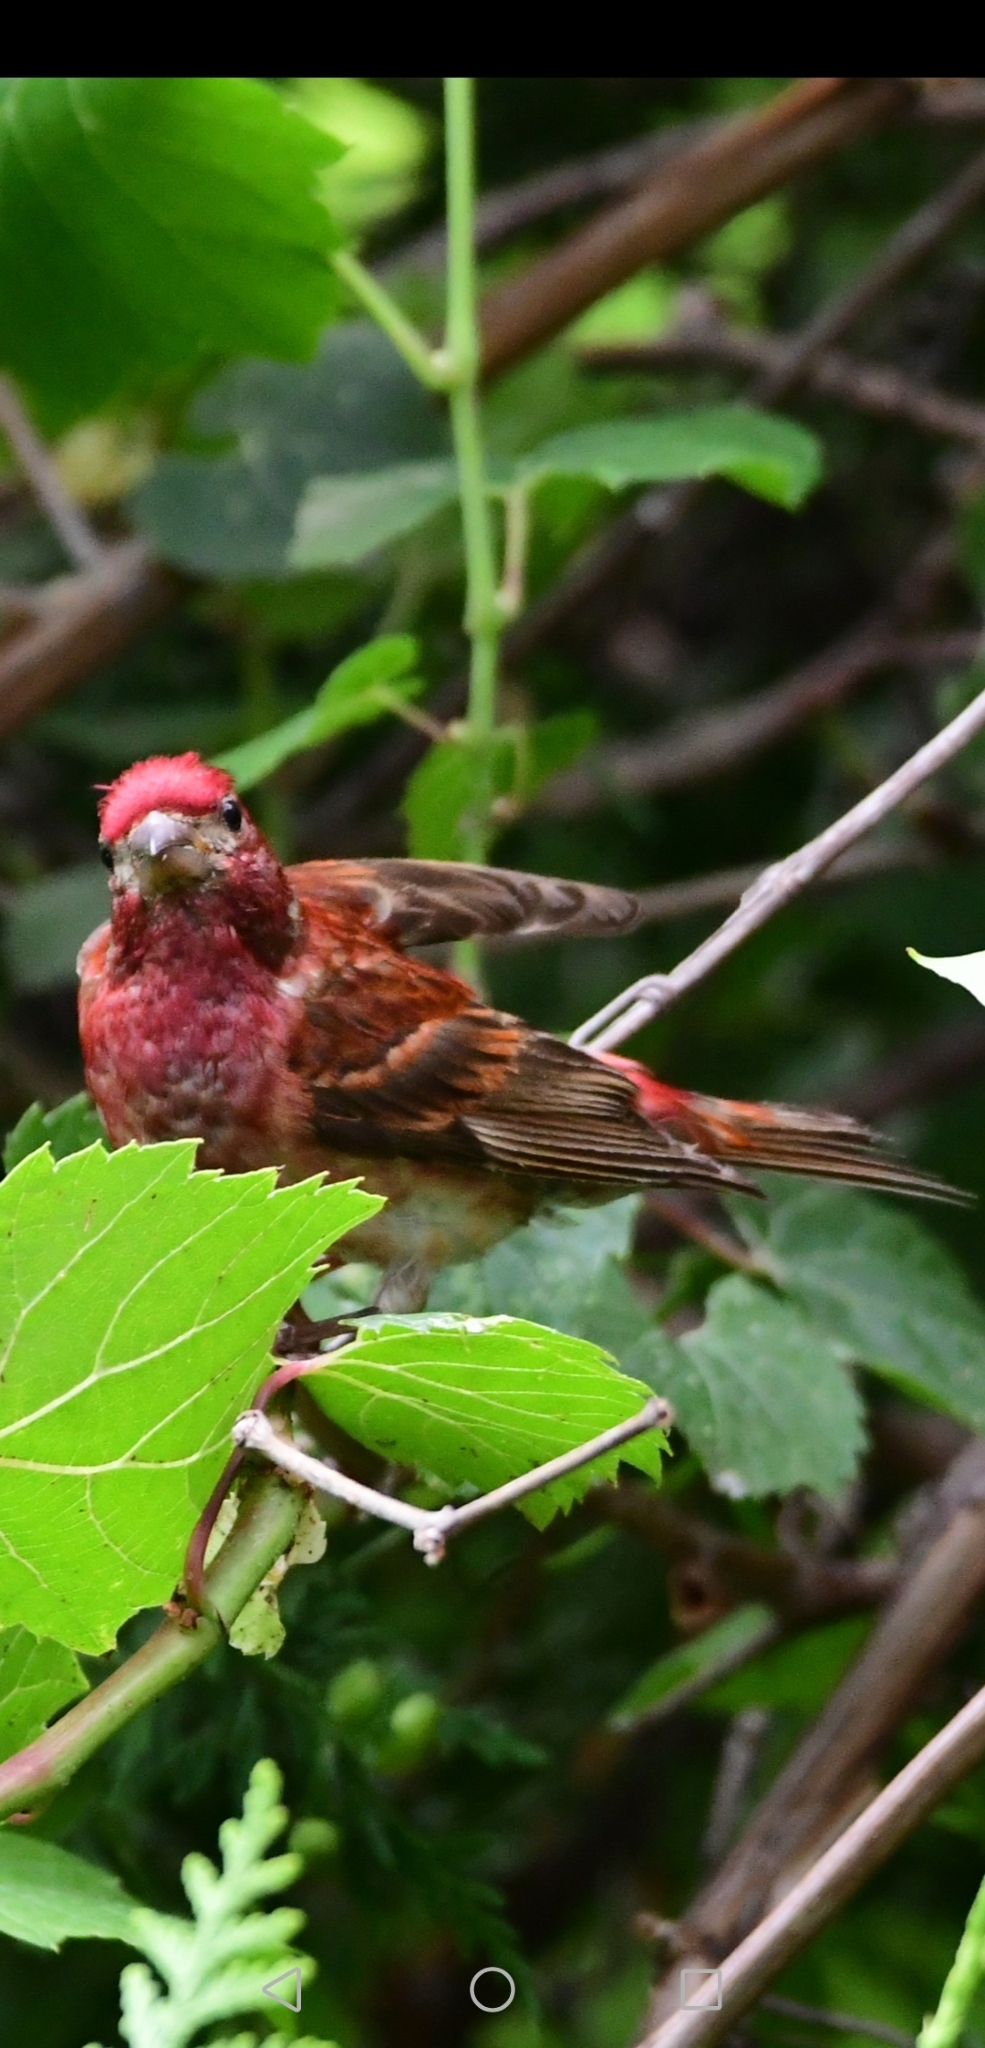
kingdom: Animalia
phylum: Chordata
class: Aves
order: Passeriformes
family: Fringillidae
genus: Haemorhous
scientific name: Haemorhous purpureus
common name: Purple finch
